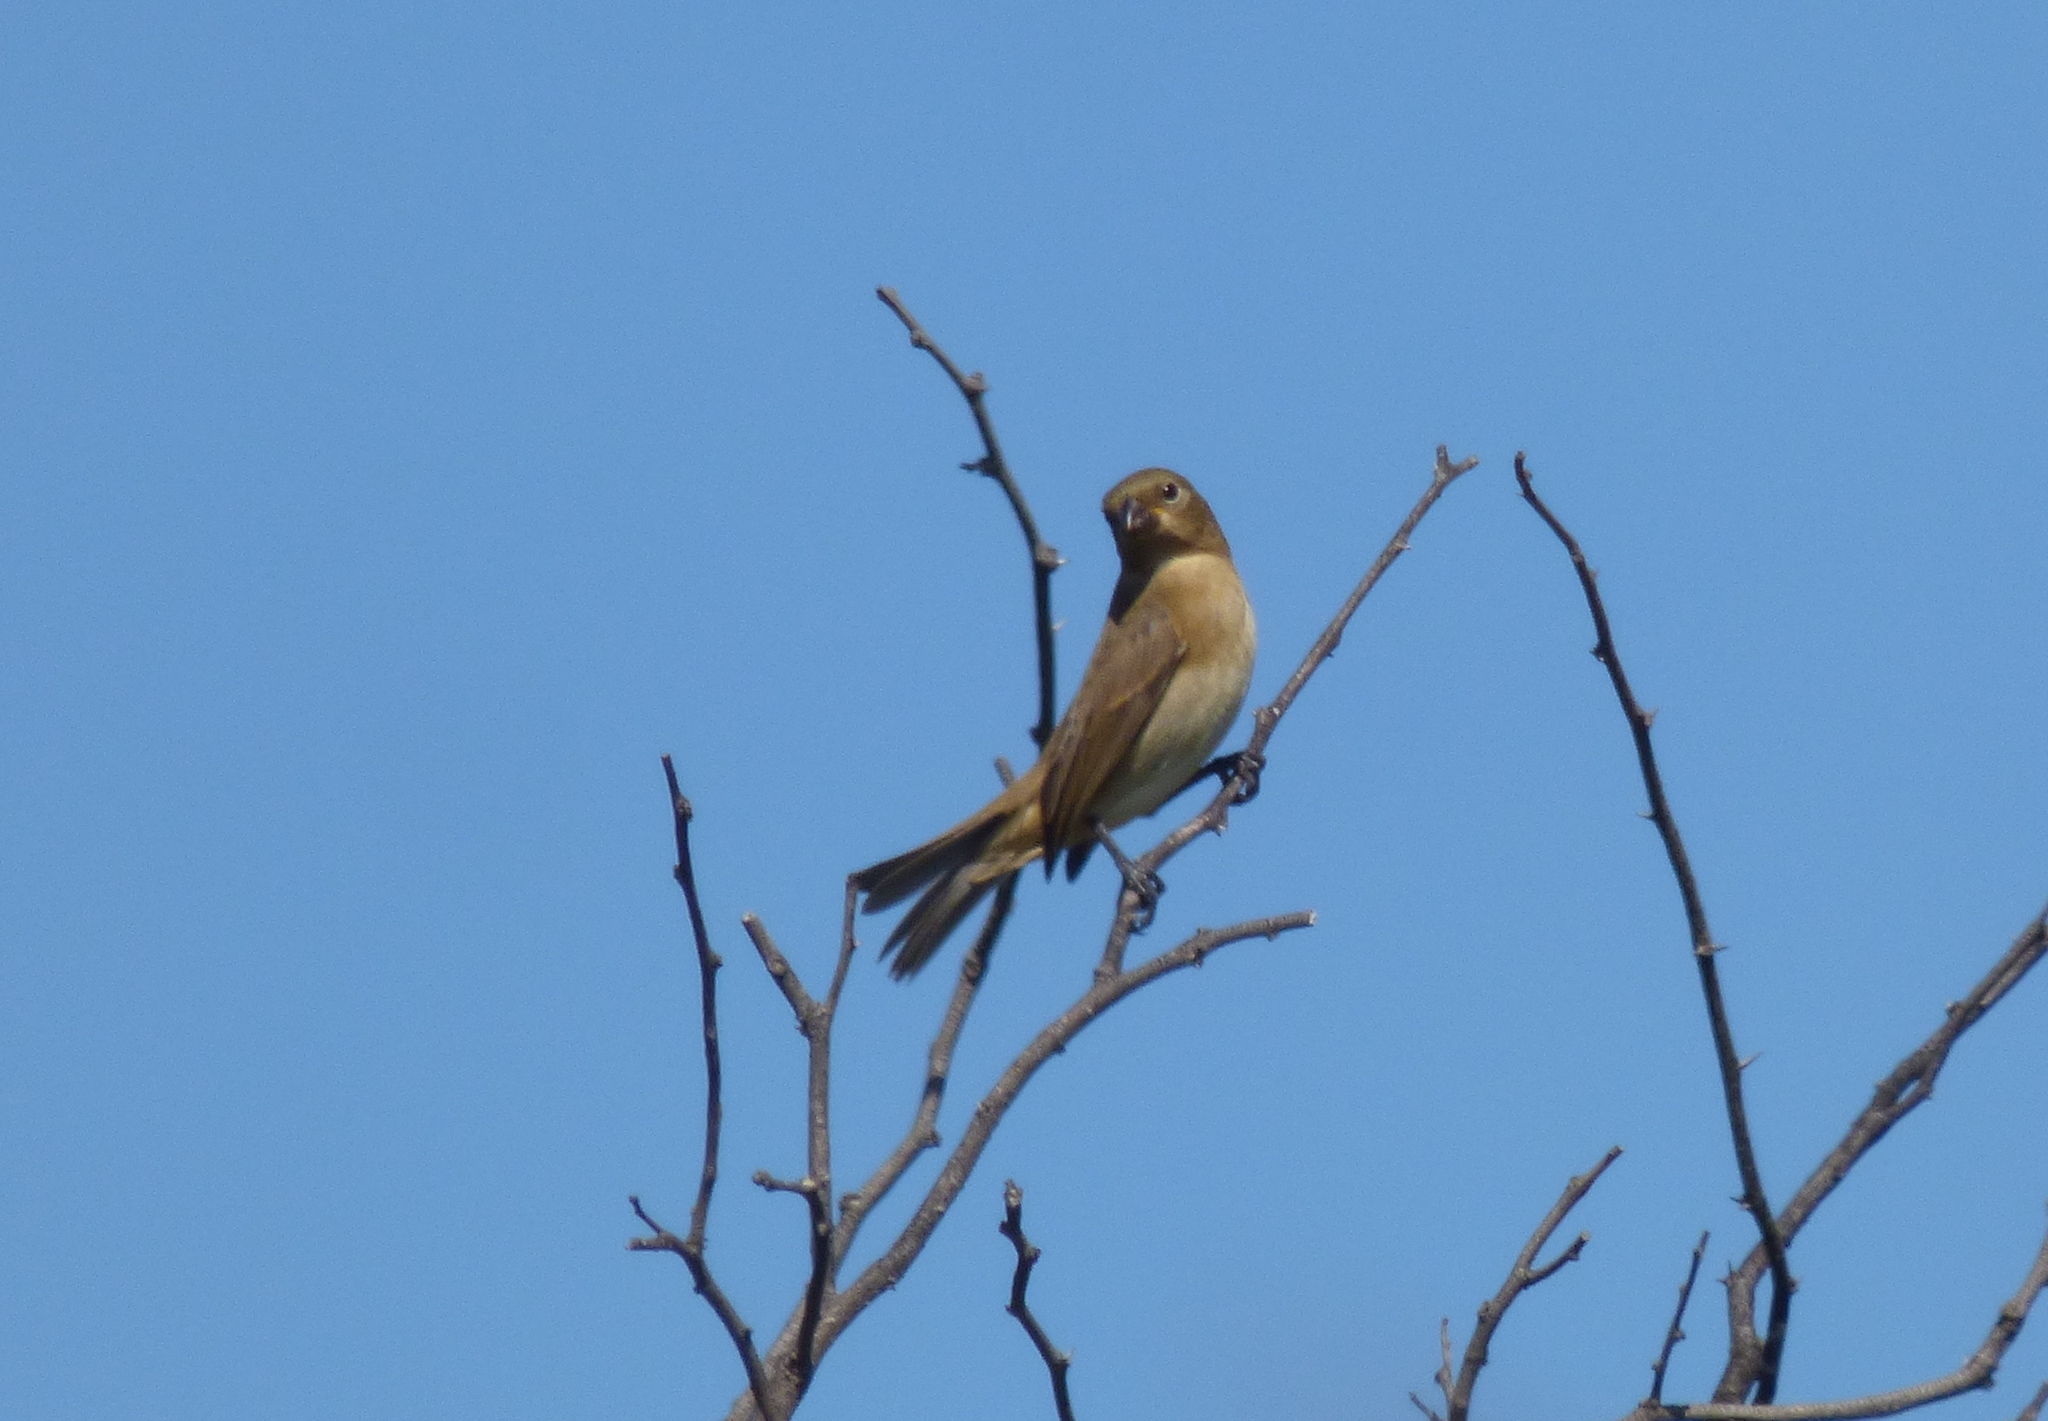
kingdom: Animalia
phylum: Chordata
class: Aves
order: Passeriformes
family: Thraupidae
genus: Sporophila
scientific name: Sporophila caerulescens
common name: Double-collared seedeater
